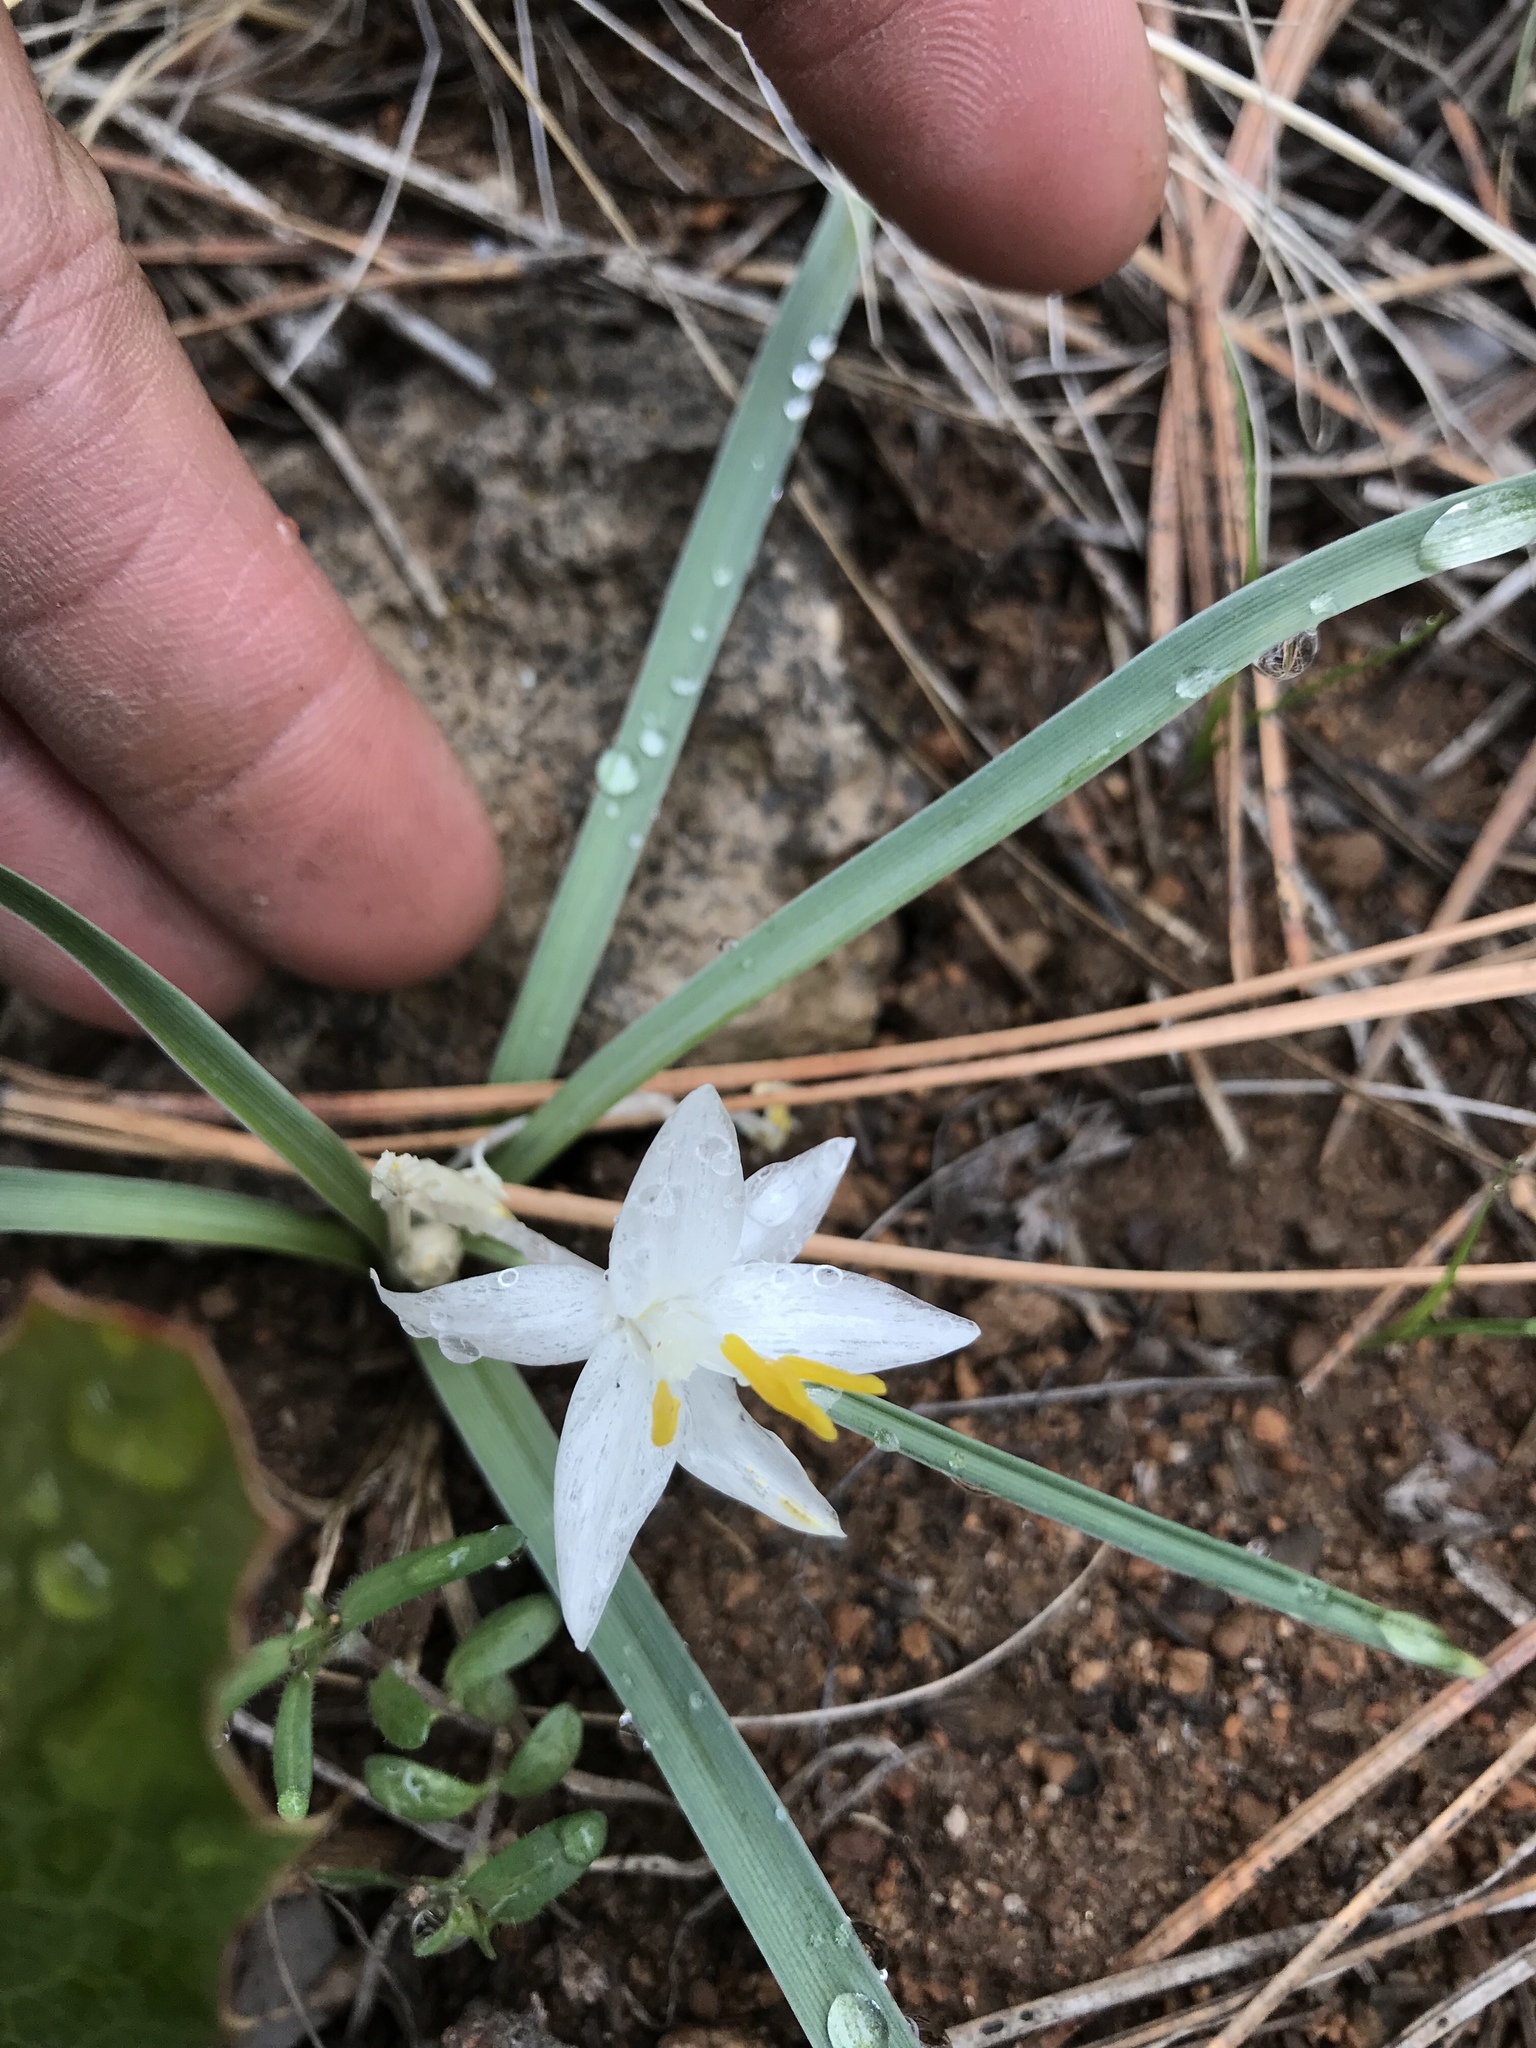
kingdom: Plantae
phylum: Tracheophyta
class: Liliopsida
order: Asparagales
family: Asparagaceae
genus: Leucocrinum
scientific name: Leucocrinum montanum
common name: Mountain-lily
